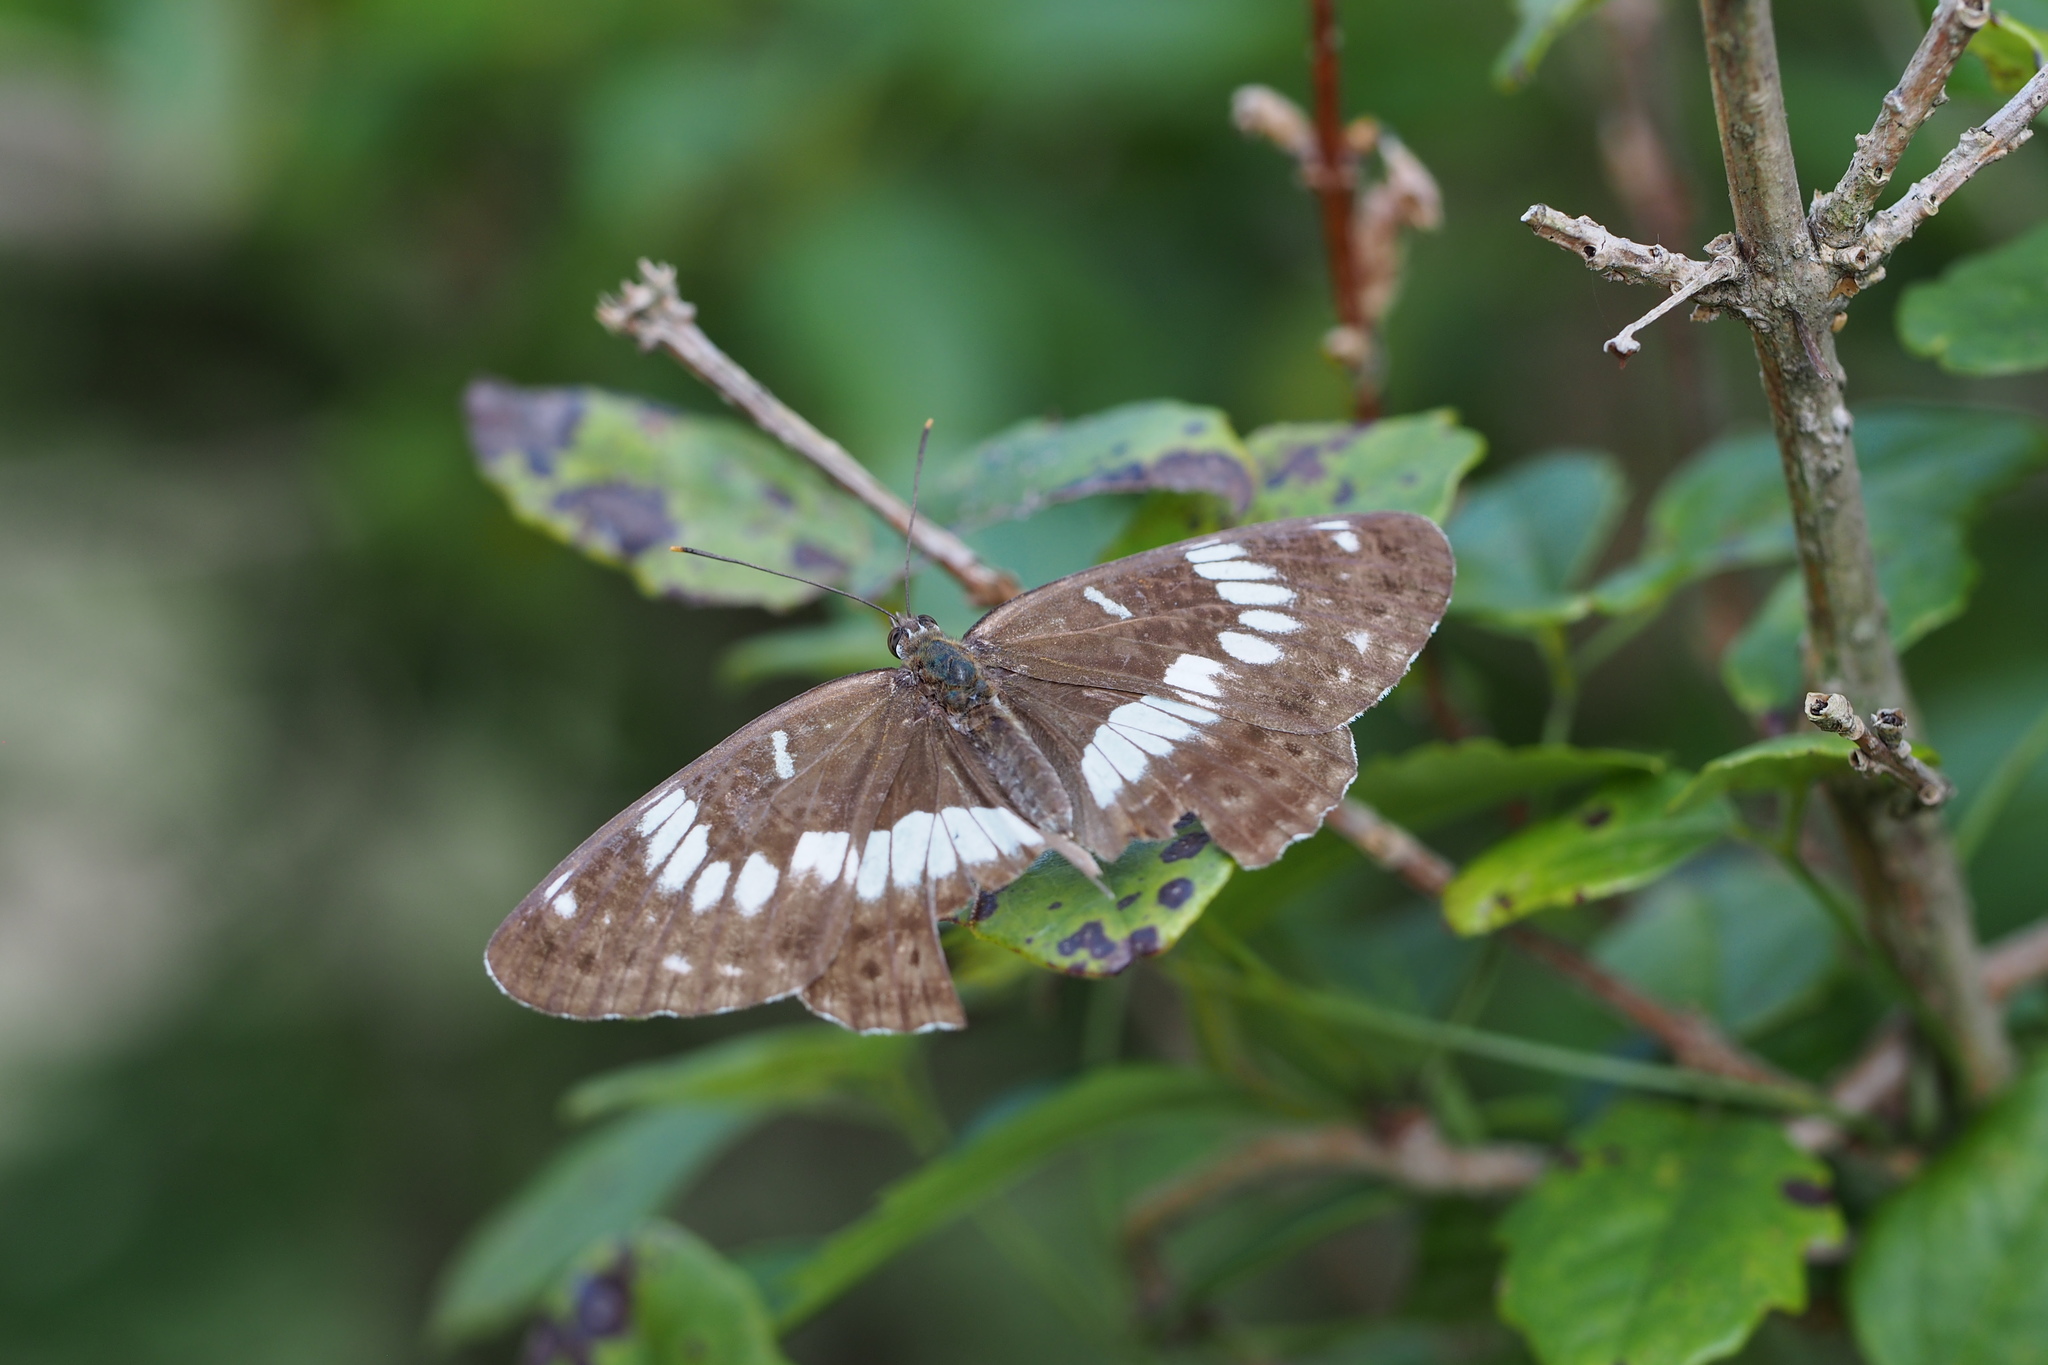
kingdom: Animalia
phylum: Arthropoda
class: Insecta
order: Lepidoptera
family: Nymphalidae
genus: Ladoga
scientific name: Ladoga camilla
